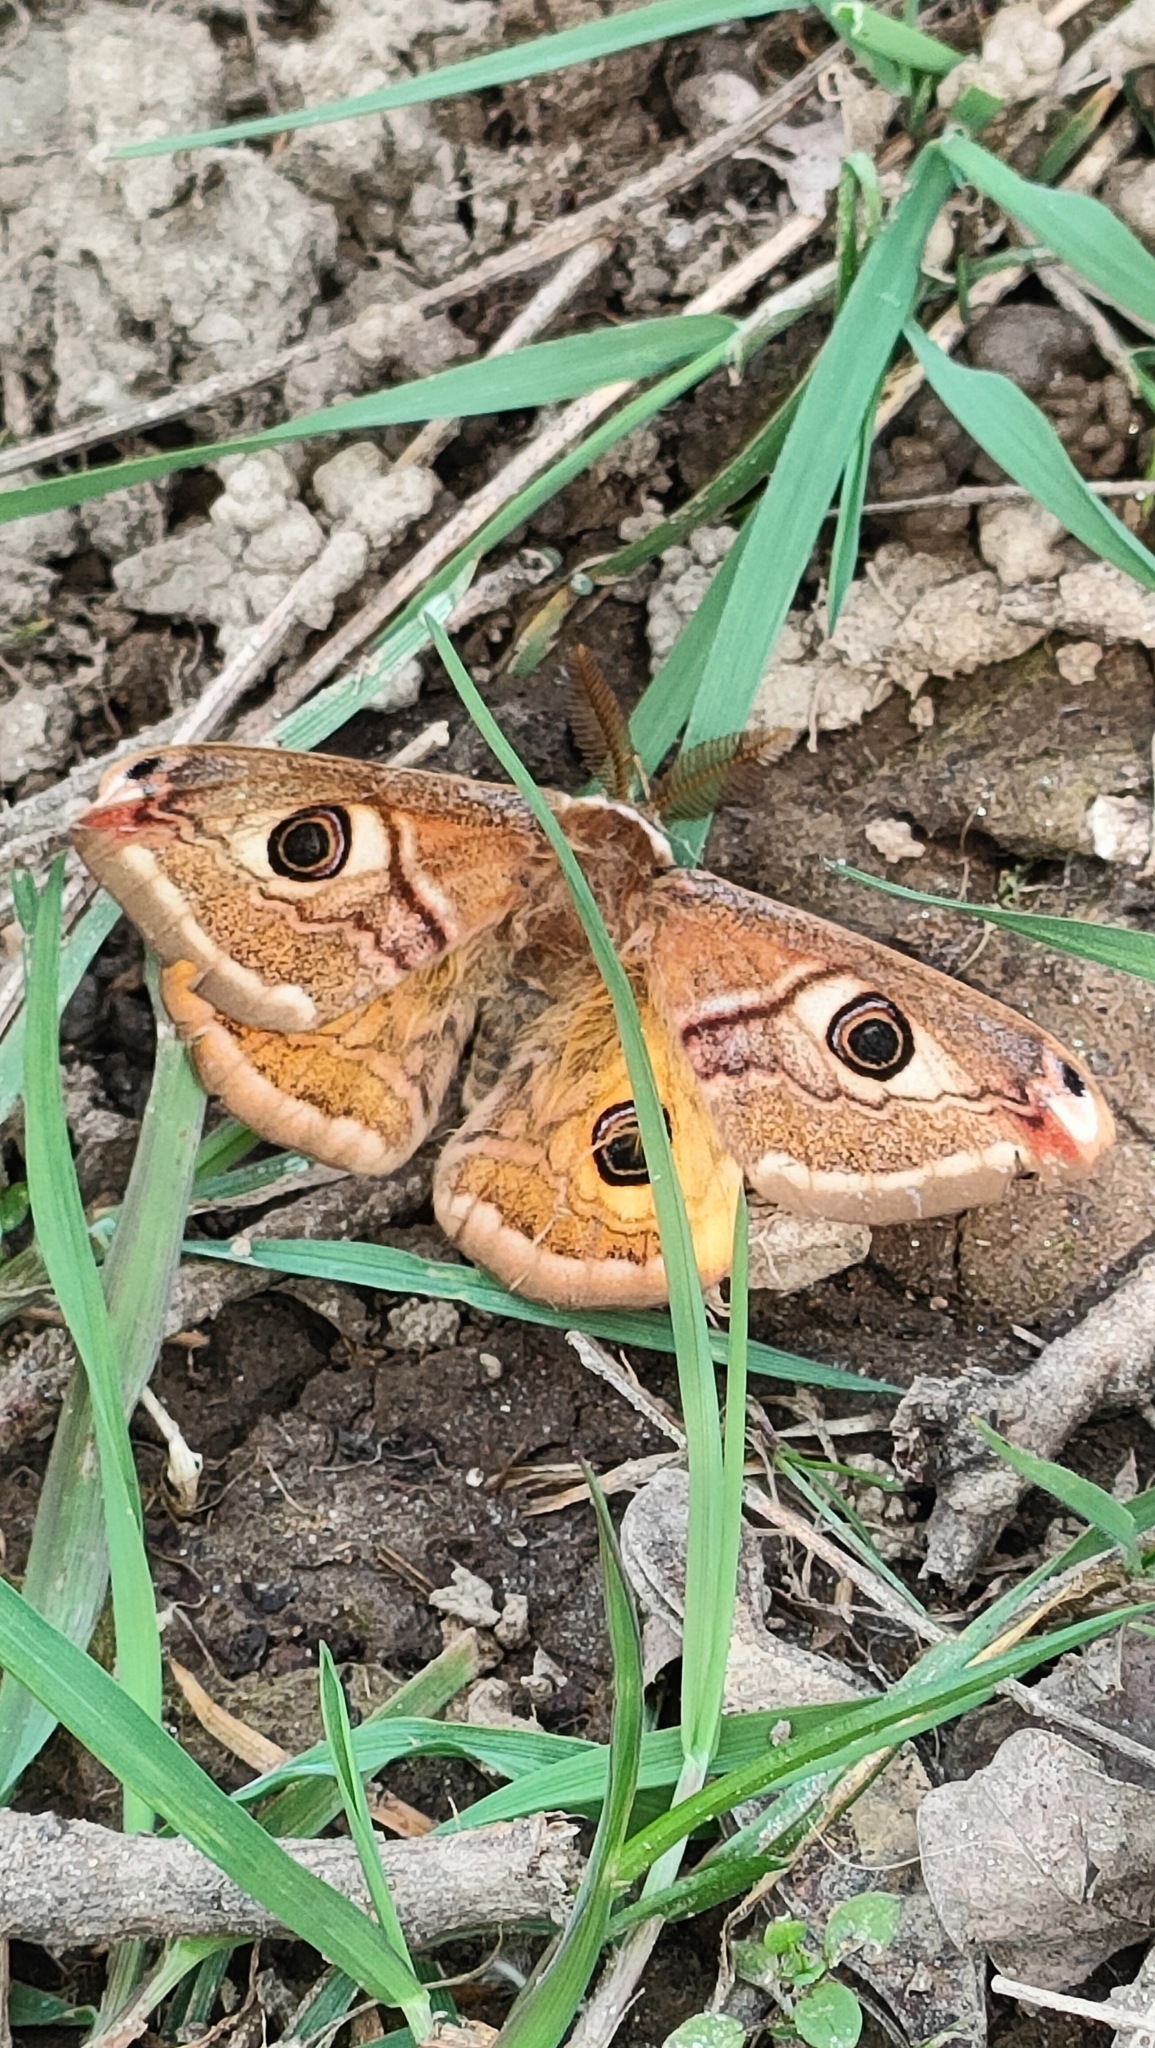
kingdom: Animalia
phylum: Arthropoda
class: Insecta
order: Lepidoptera
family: Saturniidae
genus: Saturnia
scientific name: Saturnia pavoniella
